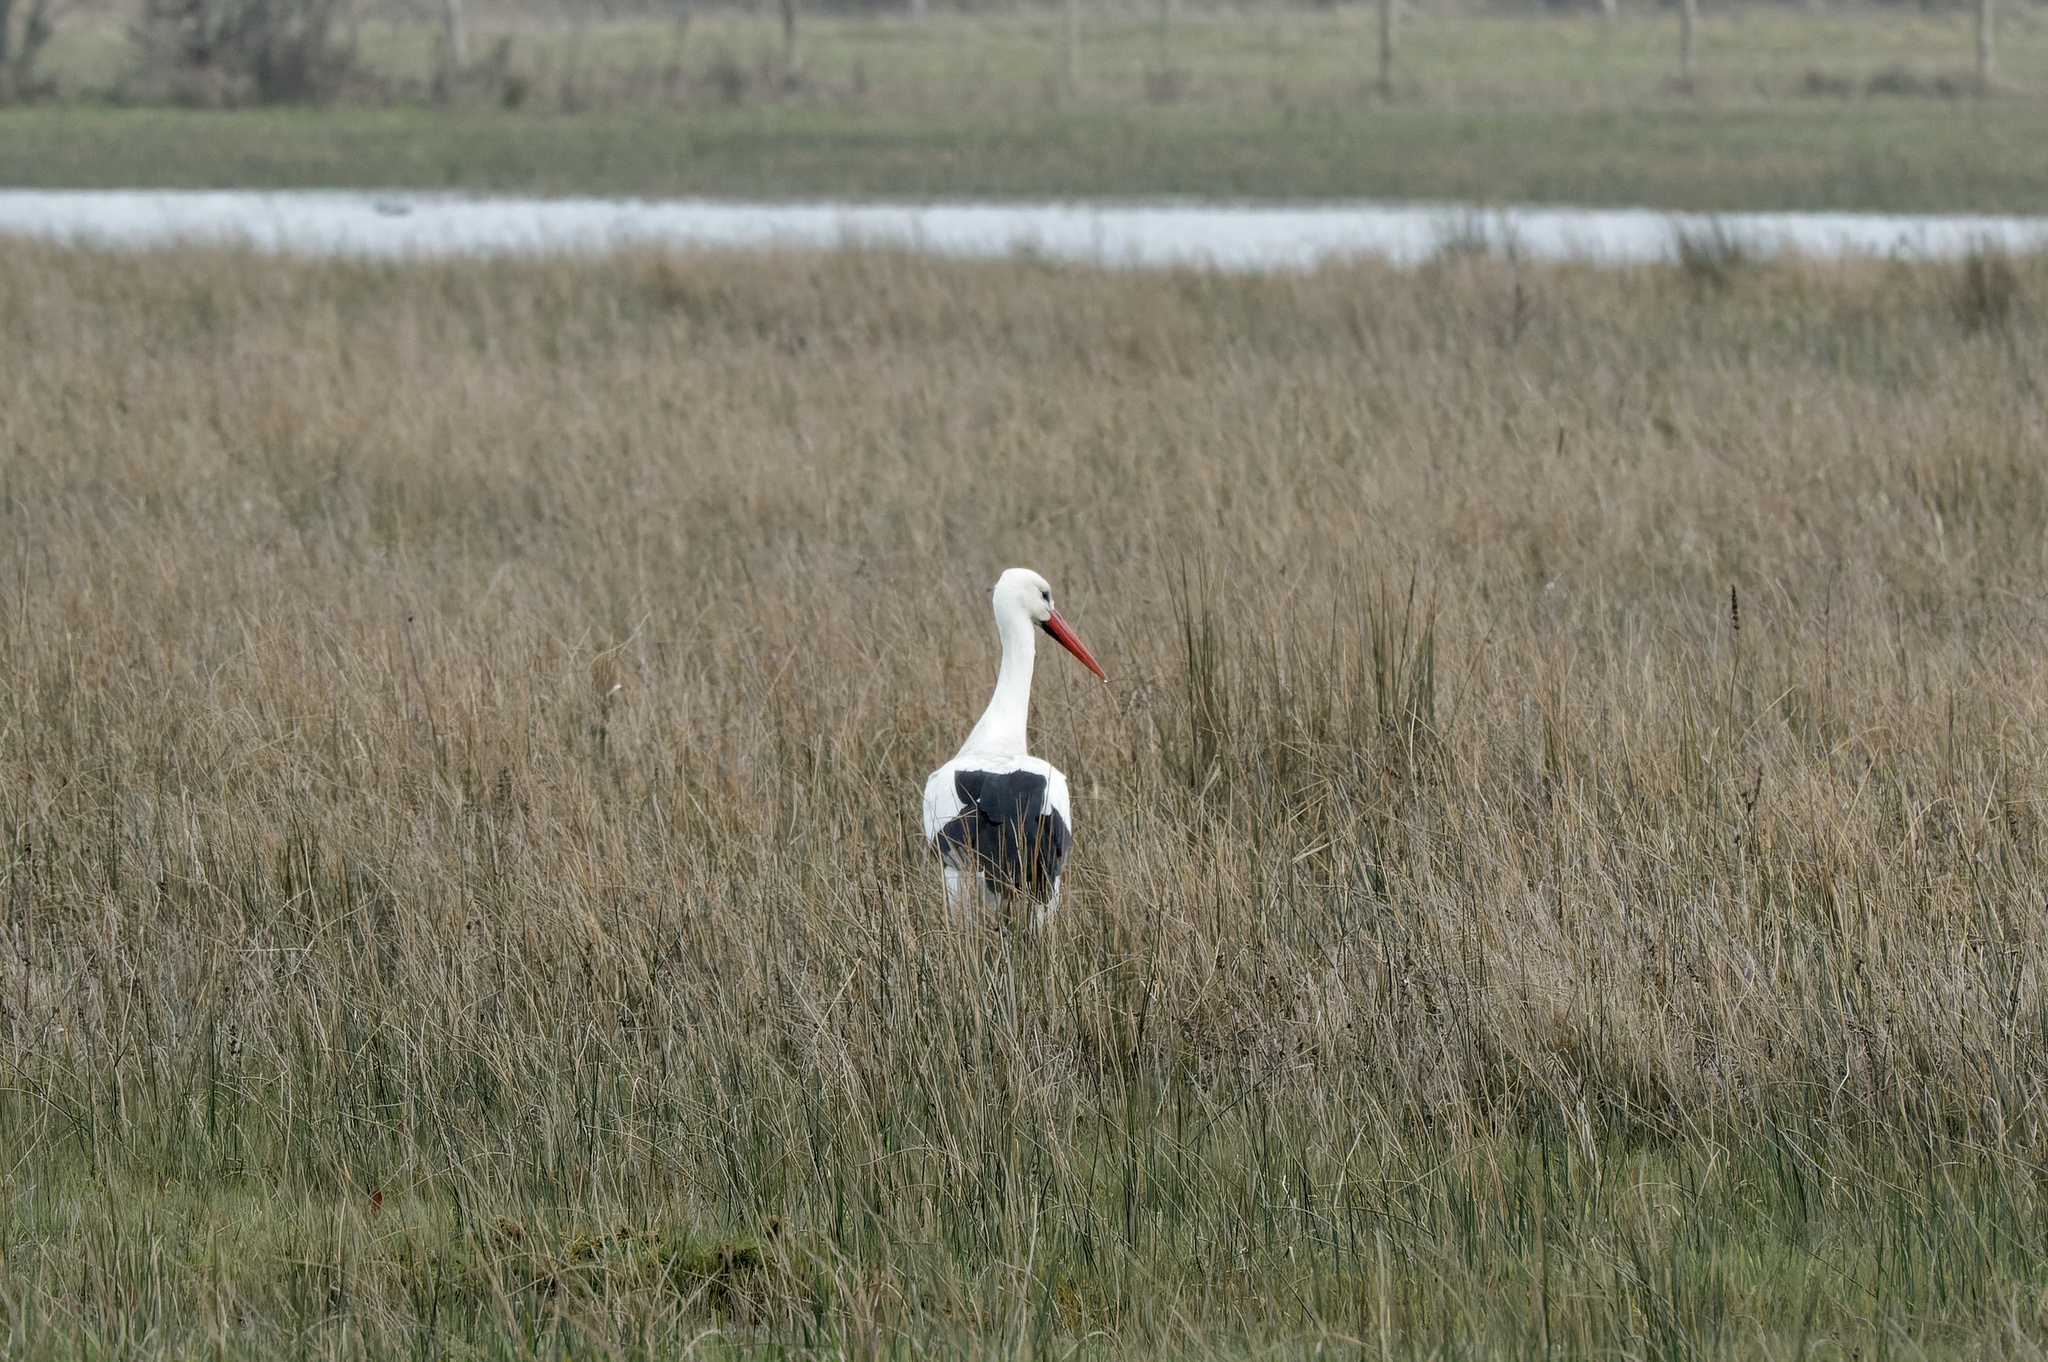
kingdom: Animalia
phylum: Chordata
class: Aves
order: Ciconiiformes
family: Ciconiidae
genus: Ciconia
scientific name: Ciconia ciconia
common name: White stork
